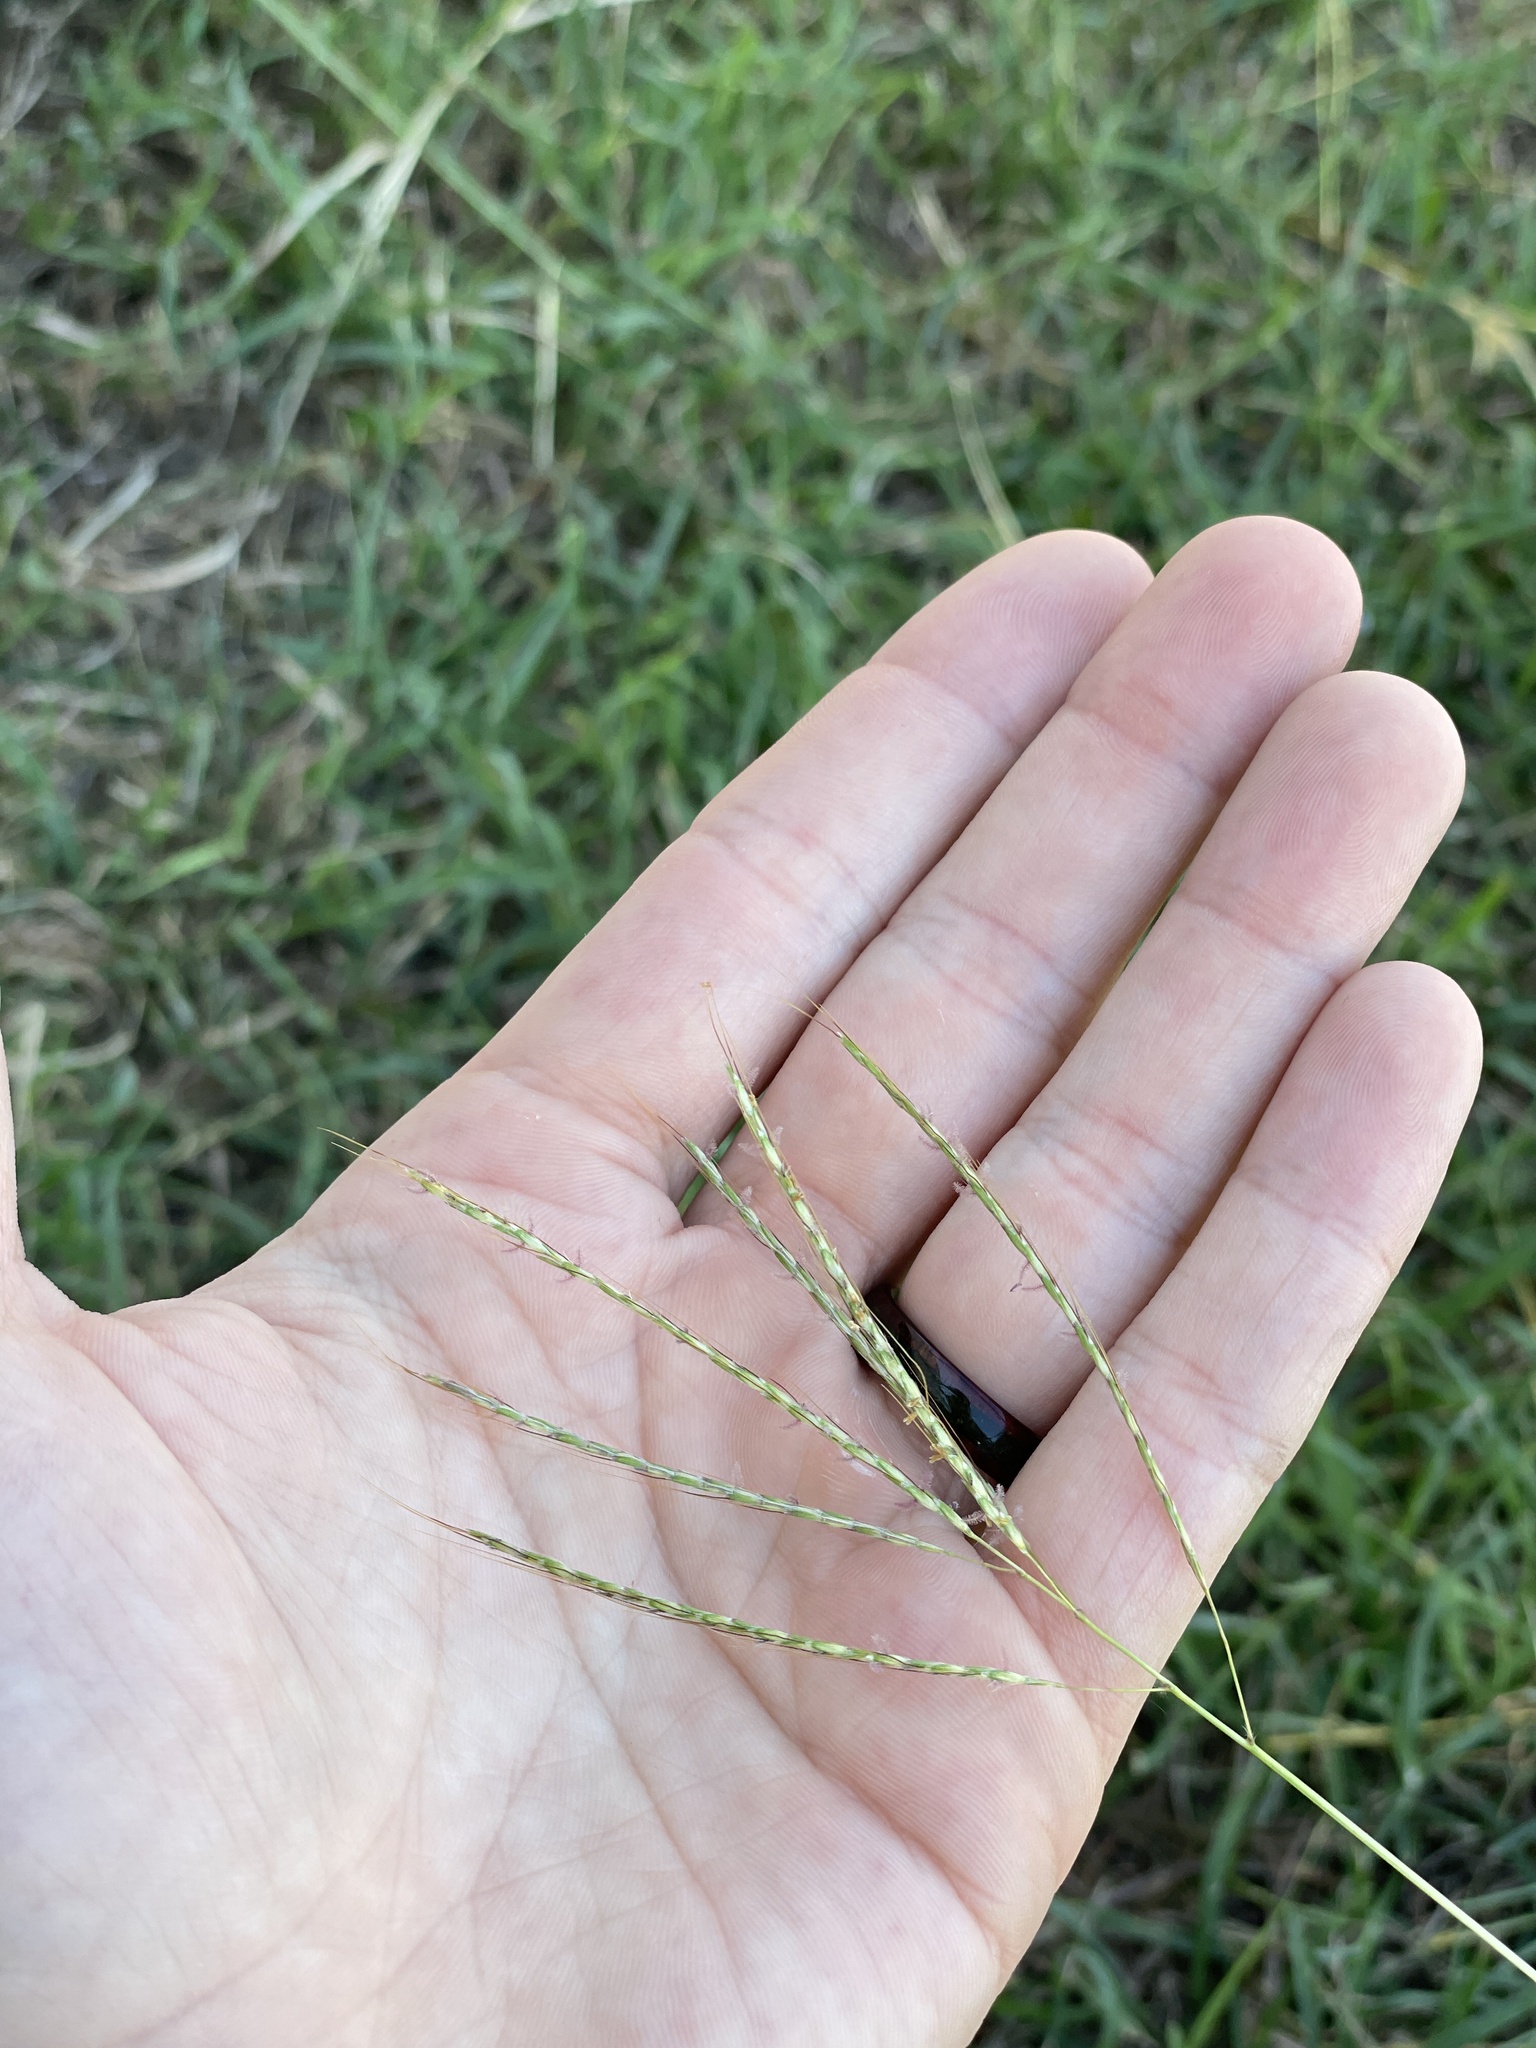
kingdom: Plantae
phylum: Tracheophyta
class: Liliopsida
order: Poales
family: Poaceae
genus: Bothriochloa
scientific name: Bothriochloa ischaemum
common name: Yellow bluestem
